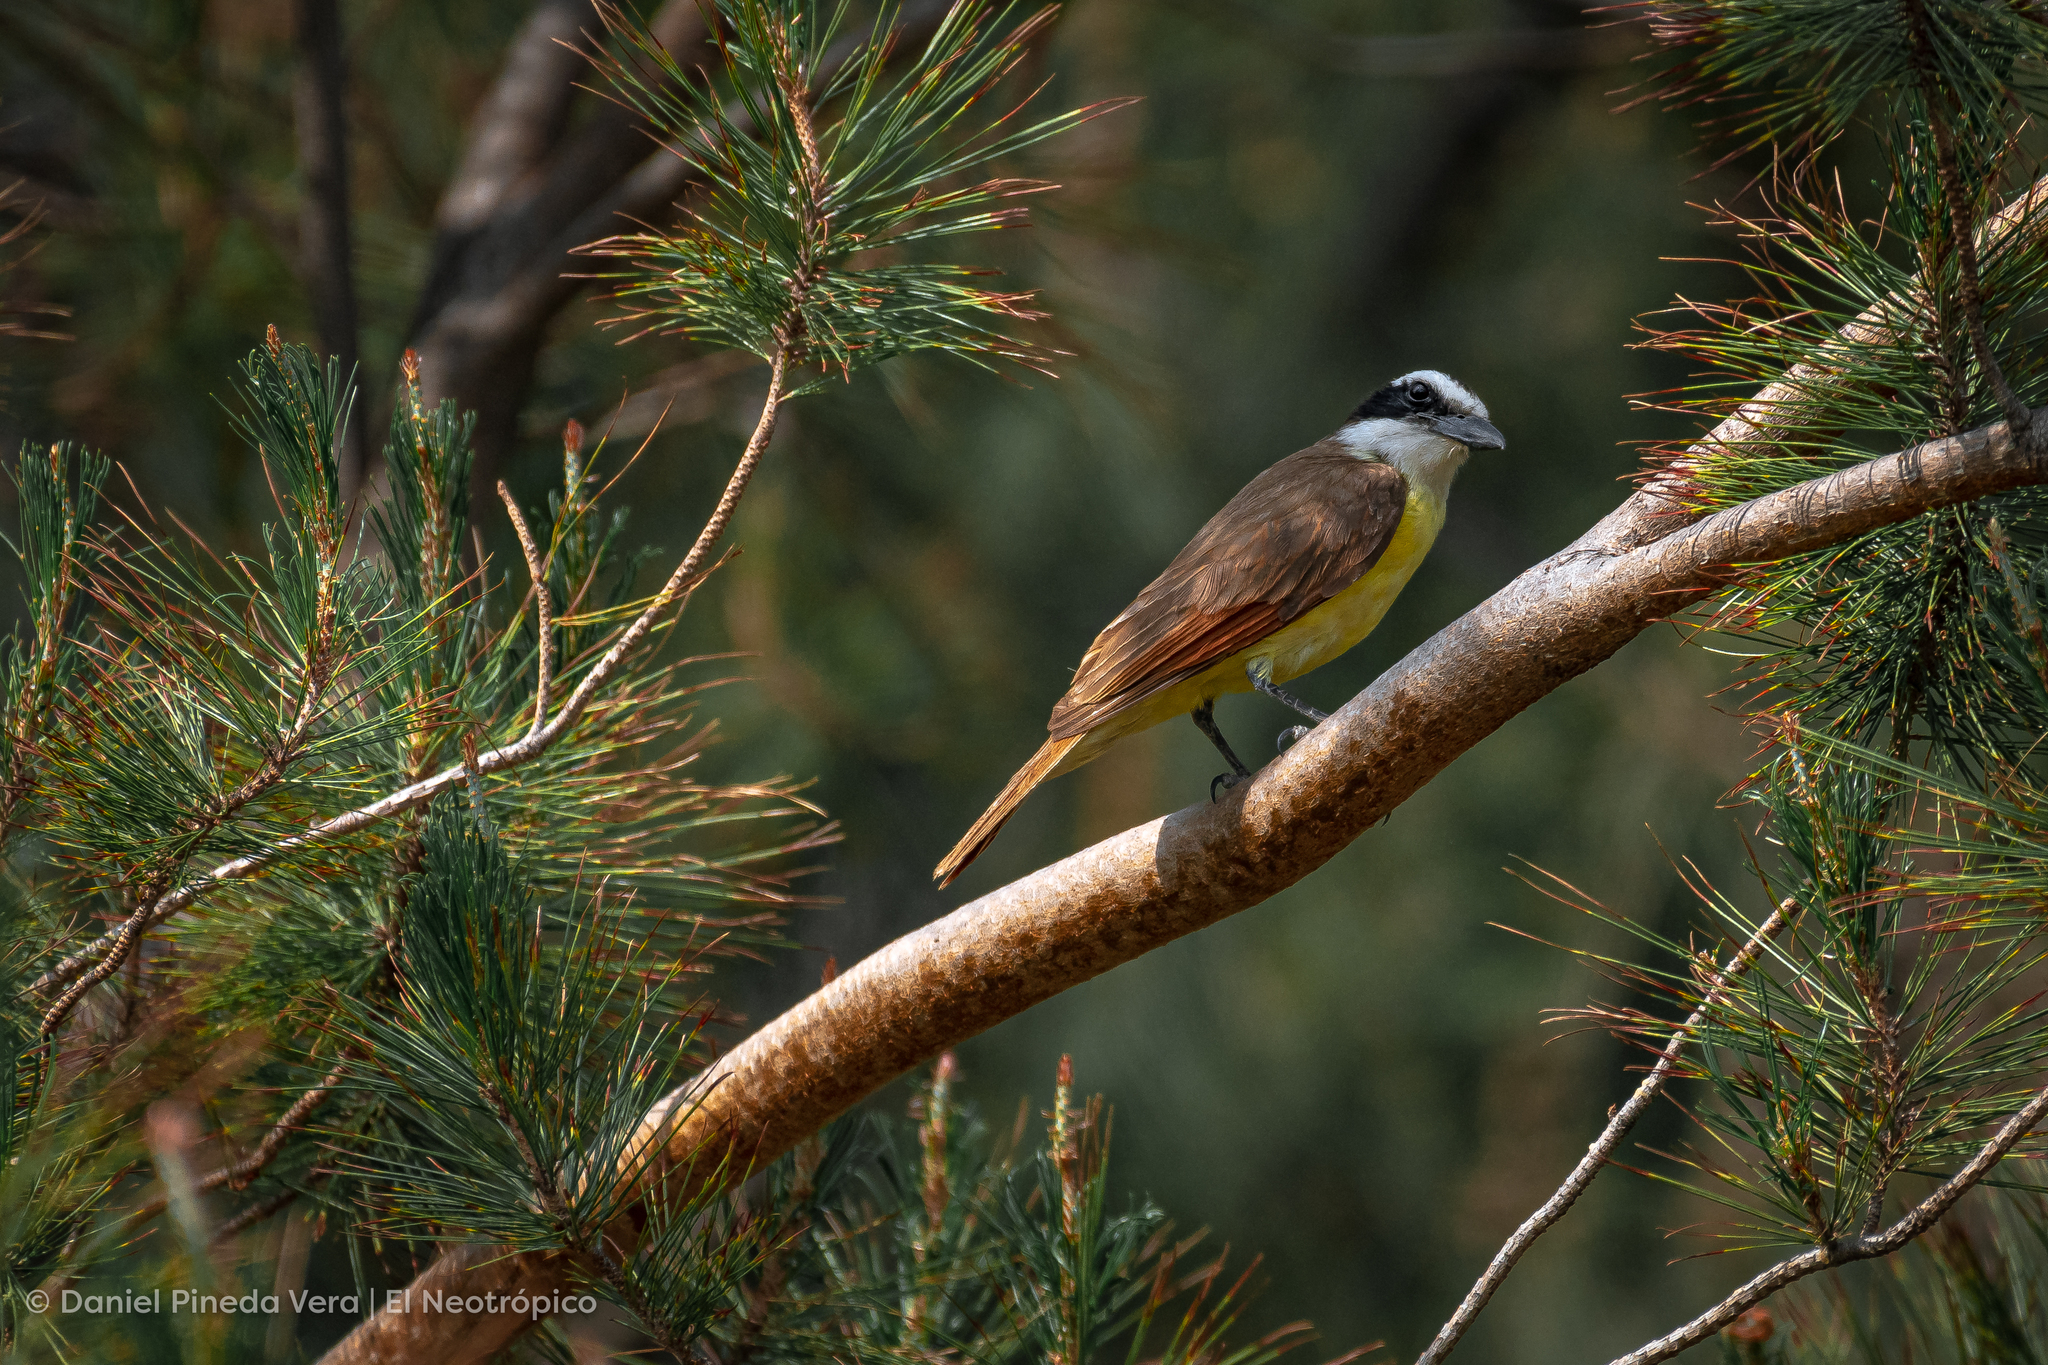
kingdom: Animalia
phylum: Chordata
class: Aves
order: Passeriformes
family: Tyrannidae
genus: Pitangus
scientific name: Pitangus sulphuratus
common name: Great kiskadee
